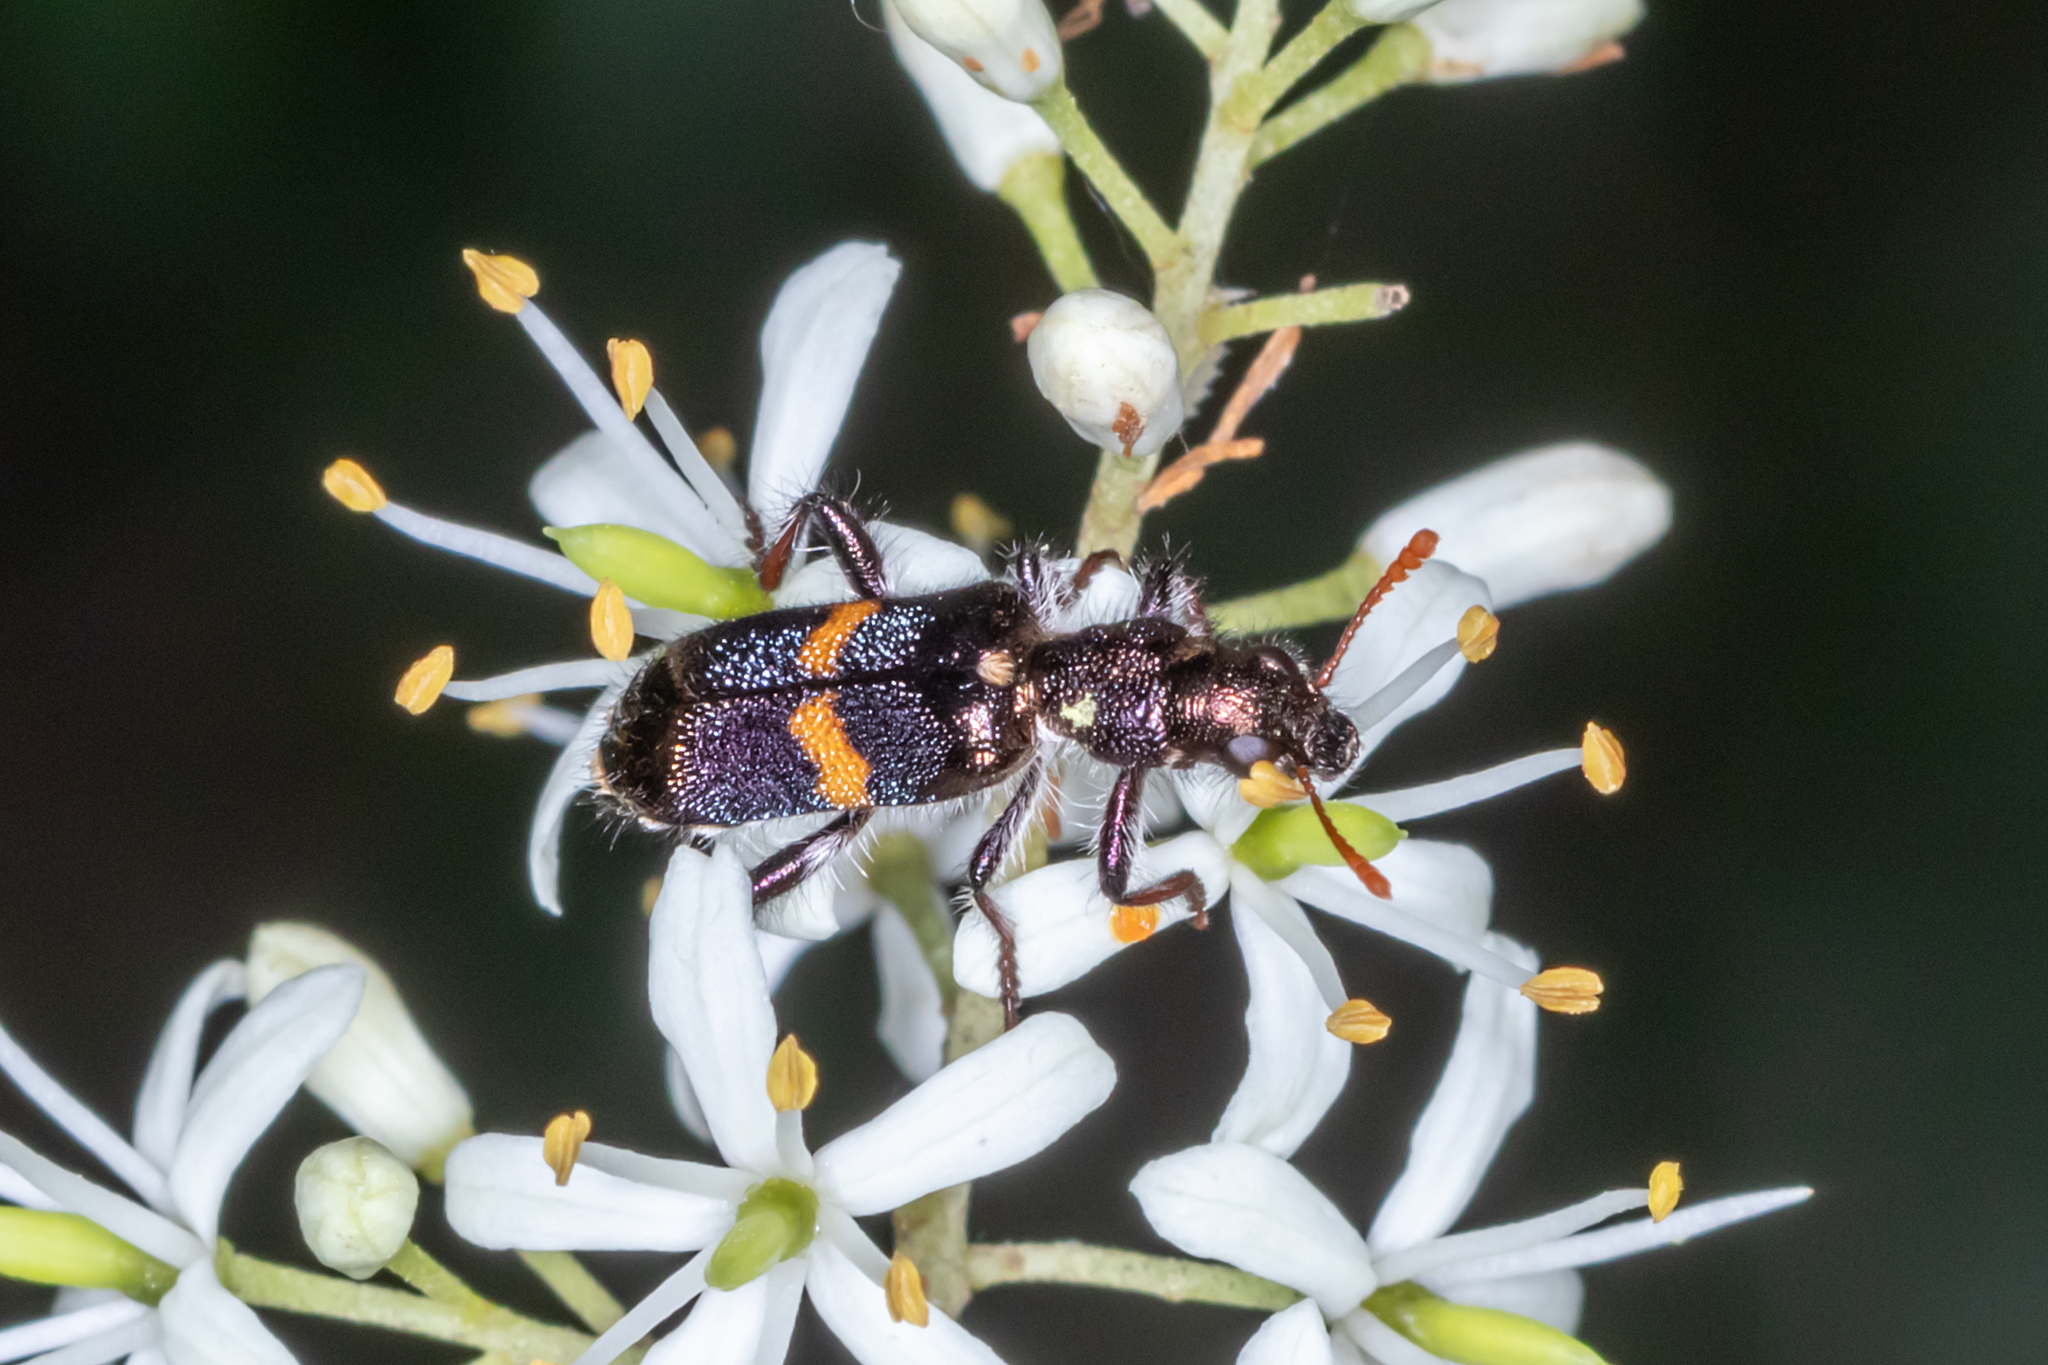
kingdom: Animalia
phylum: Arthropoda
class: Insecta
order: Coleoptera
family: Cleridae
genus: Eleale
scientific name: Eleale
